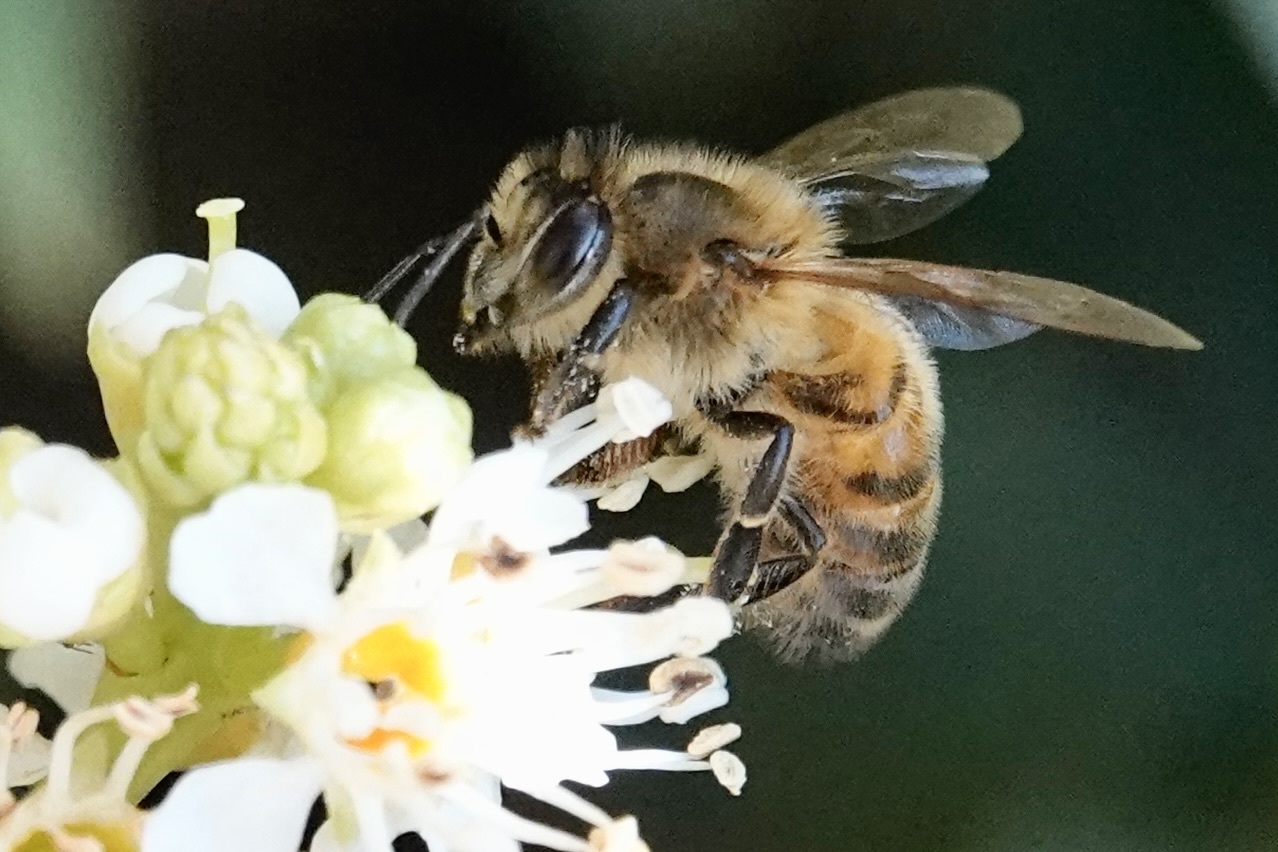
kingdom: Animalia
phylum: Arthropoda
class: Insecta
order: Hymenoptera
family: Apidae
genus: Apis
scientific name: Apis mellifera
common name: Honey bee
